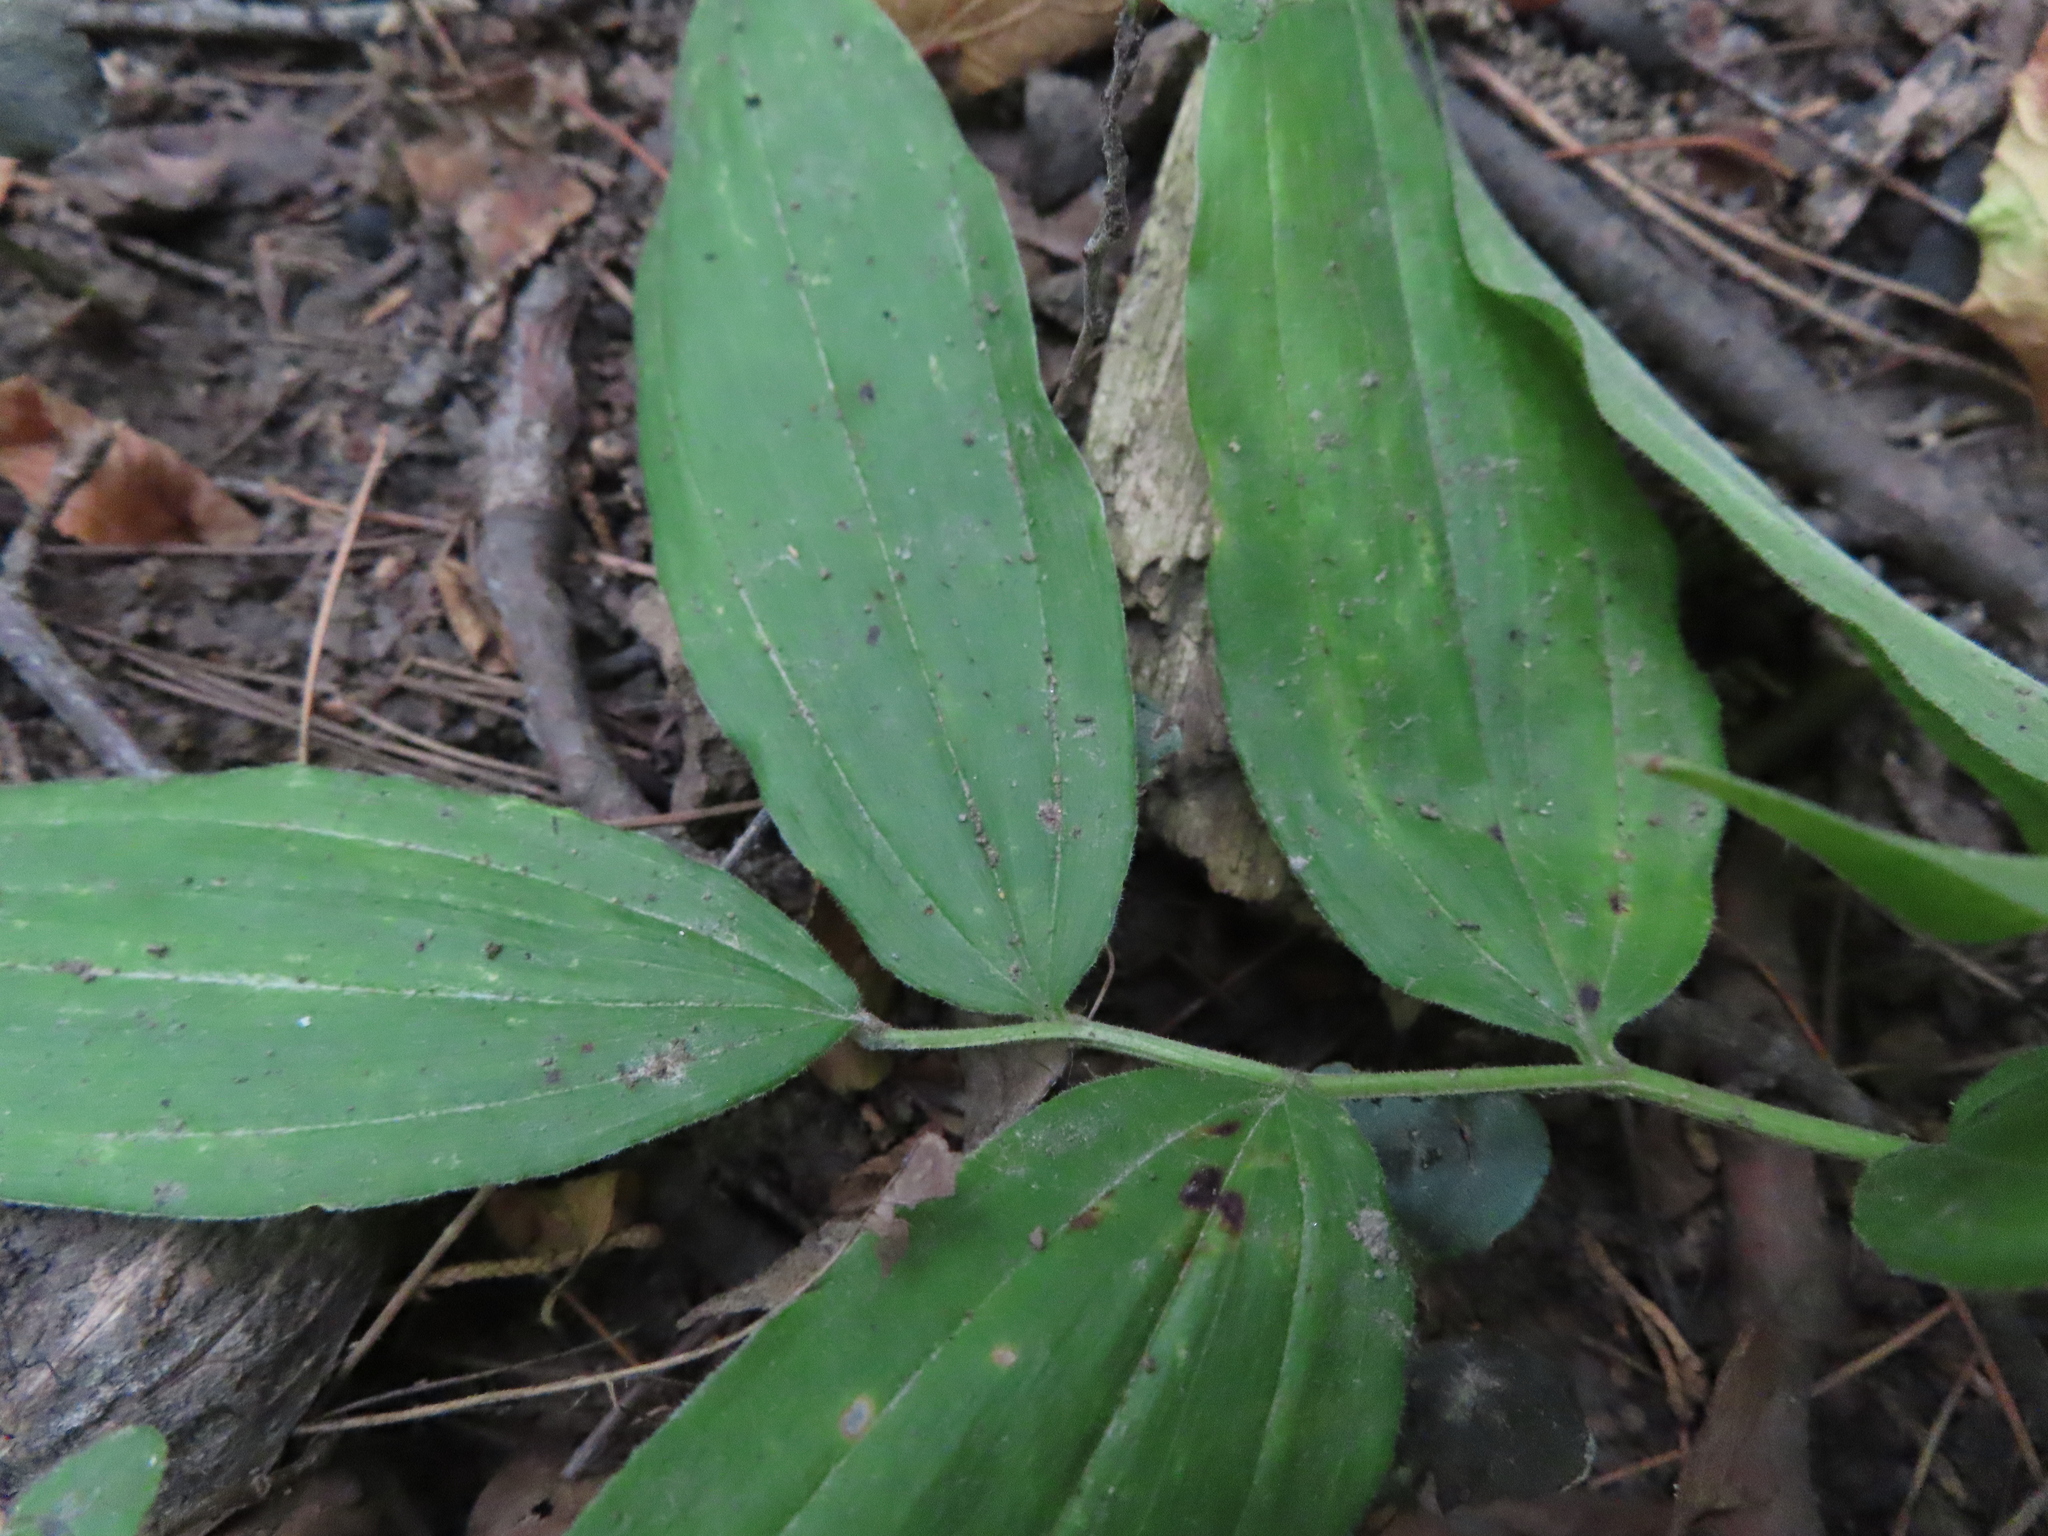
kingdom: Plantae
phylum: Tracheophyta
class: Liliopsida
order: Asparagales
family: Asparagaceae
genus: Maianthemum
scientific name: Maianthemum racemosum
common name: False spikenard
